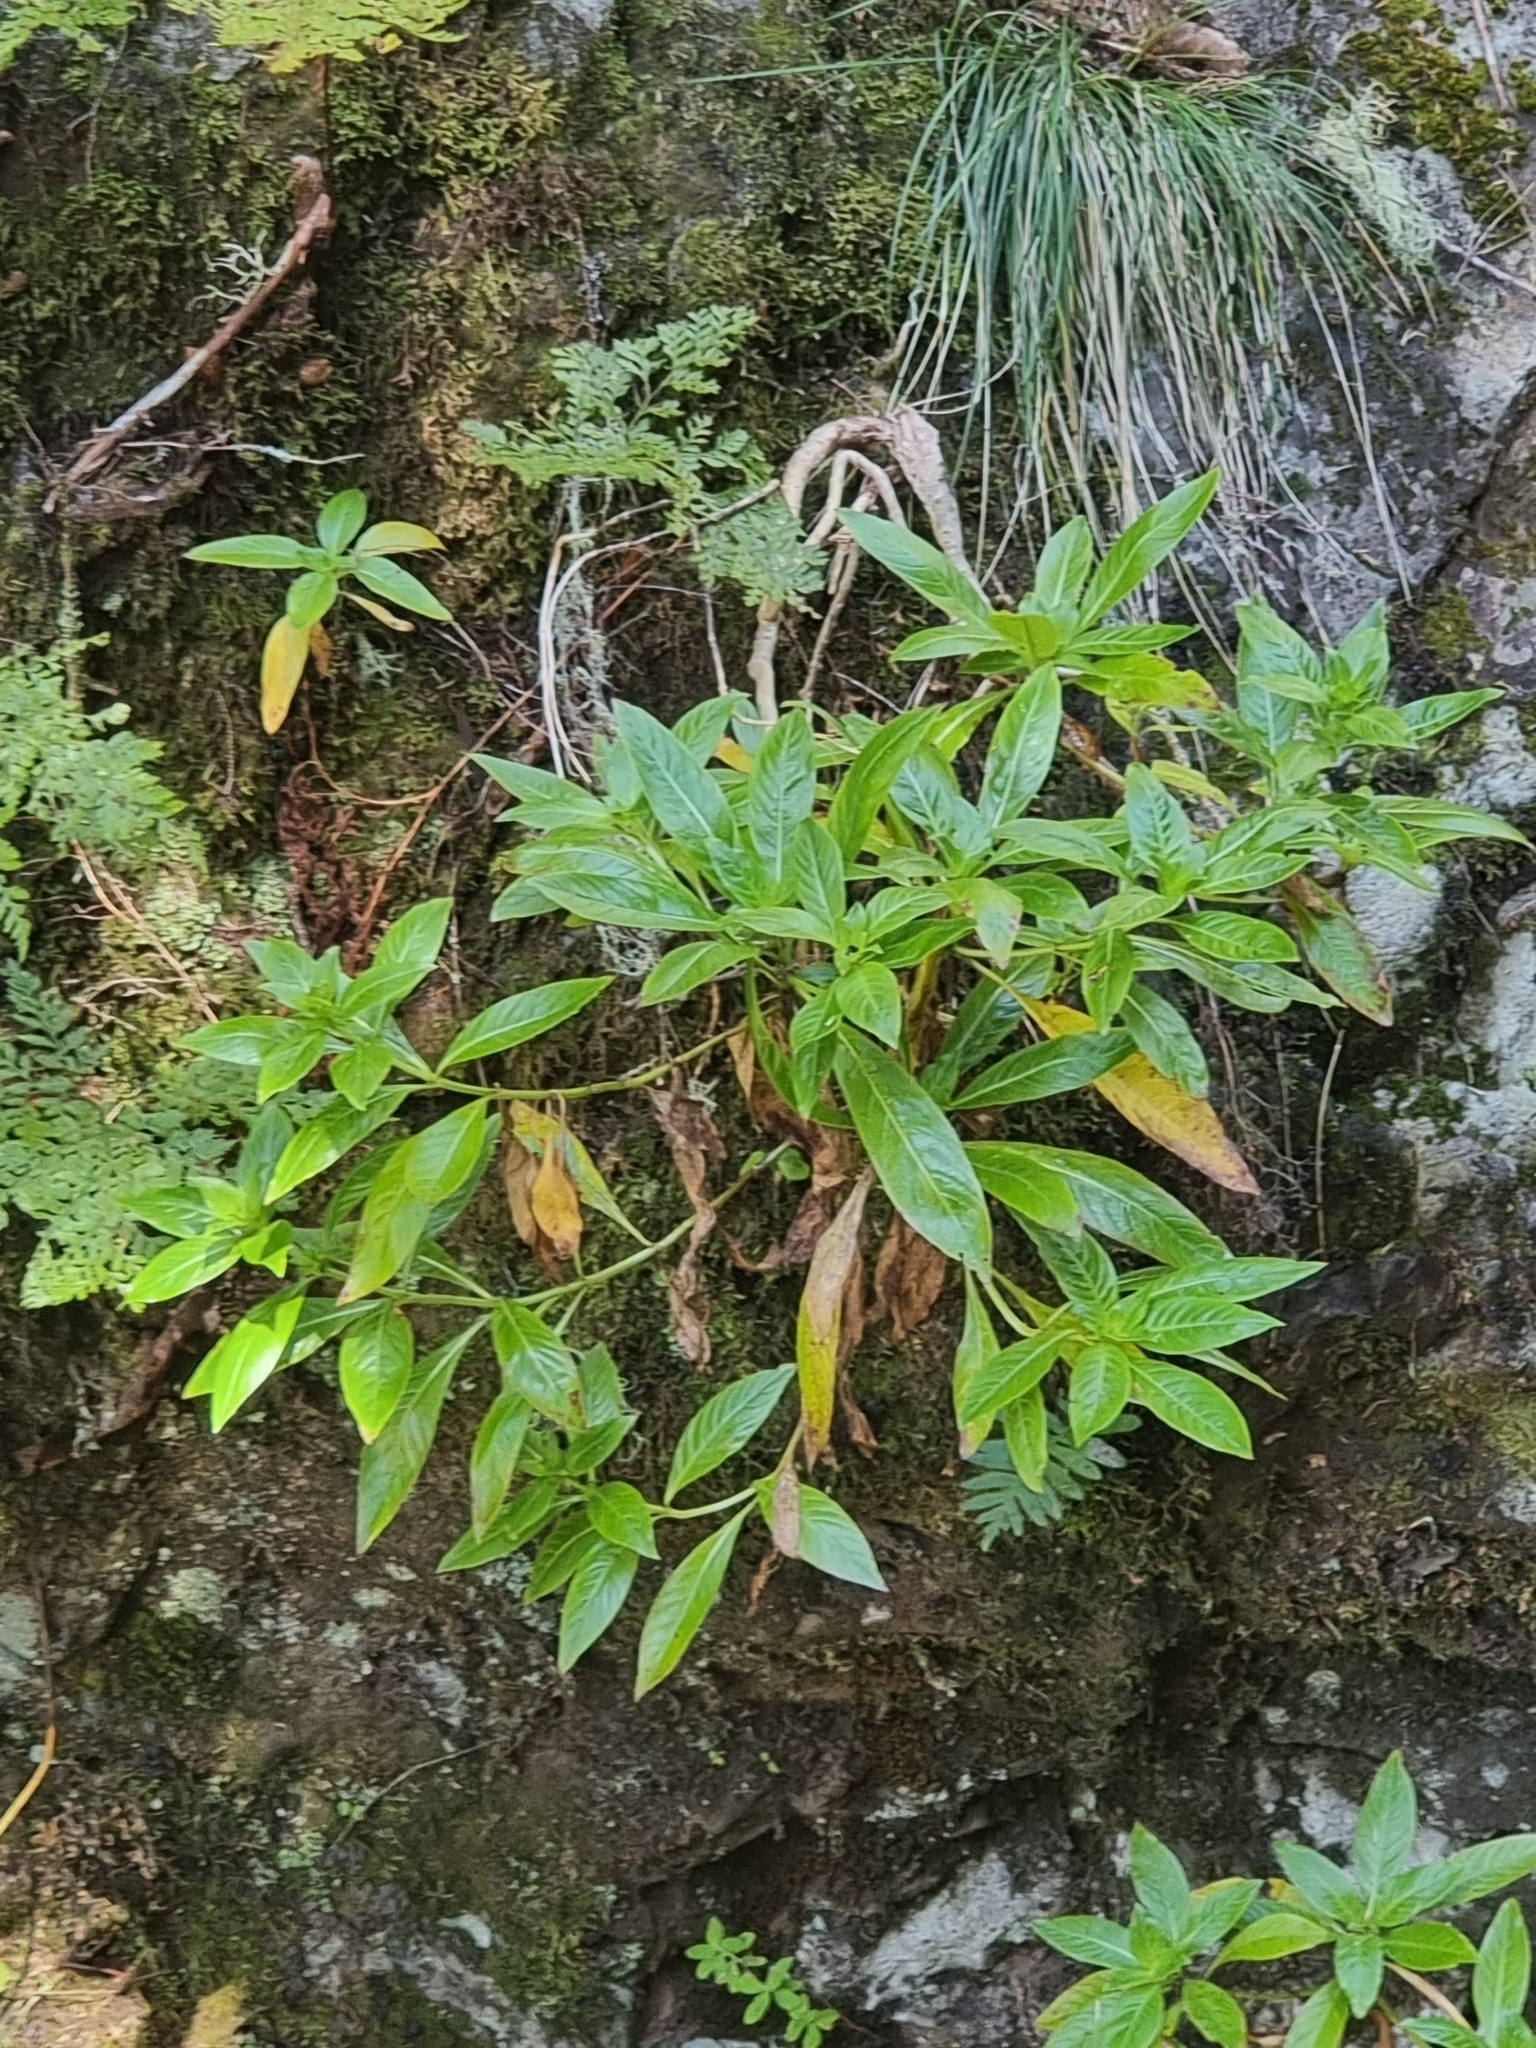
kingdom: Plantae
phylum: Tracheophyta
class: Magnoliopsida
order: Gentianales
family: Rubiaceae
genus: Phyllis
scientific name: Phyllis nobla
